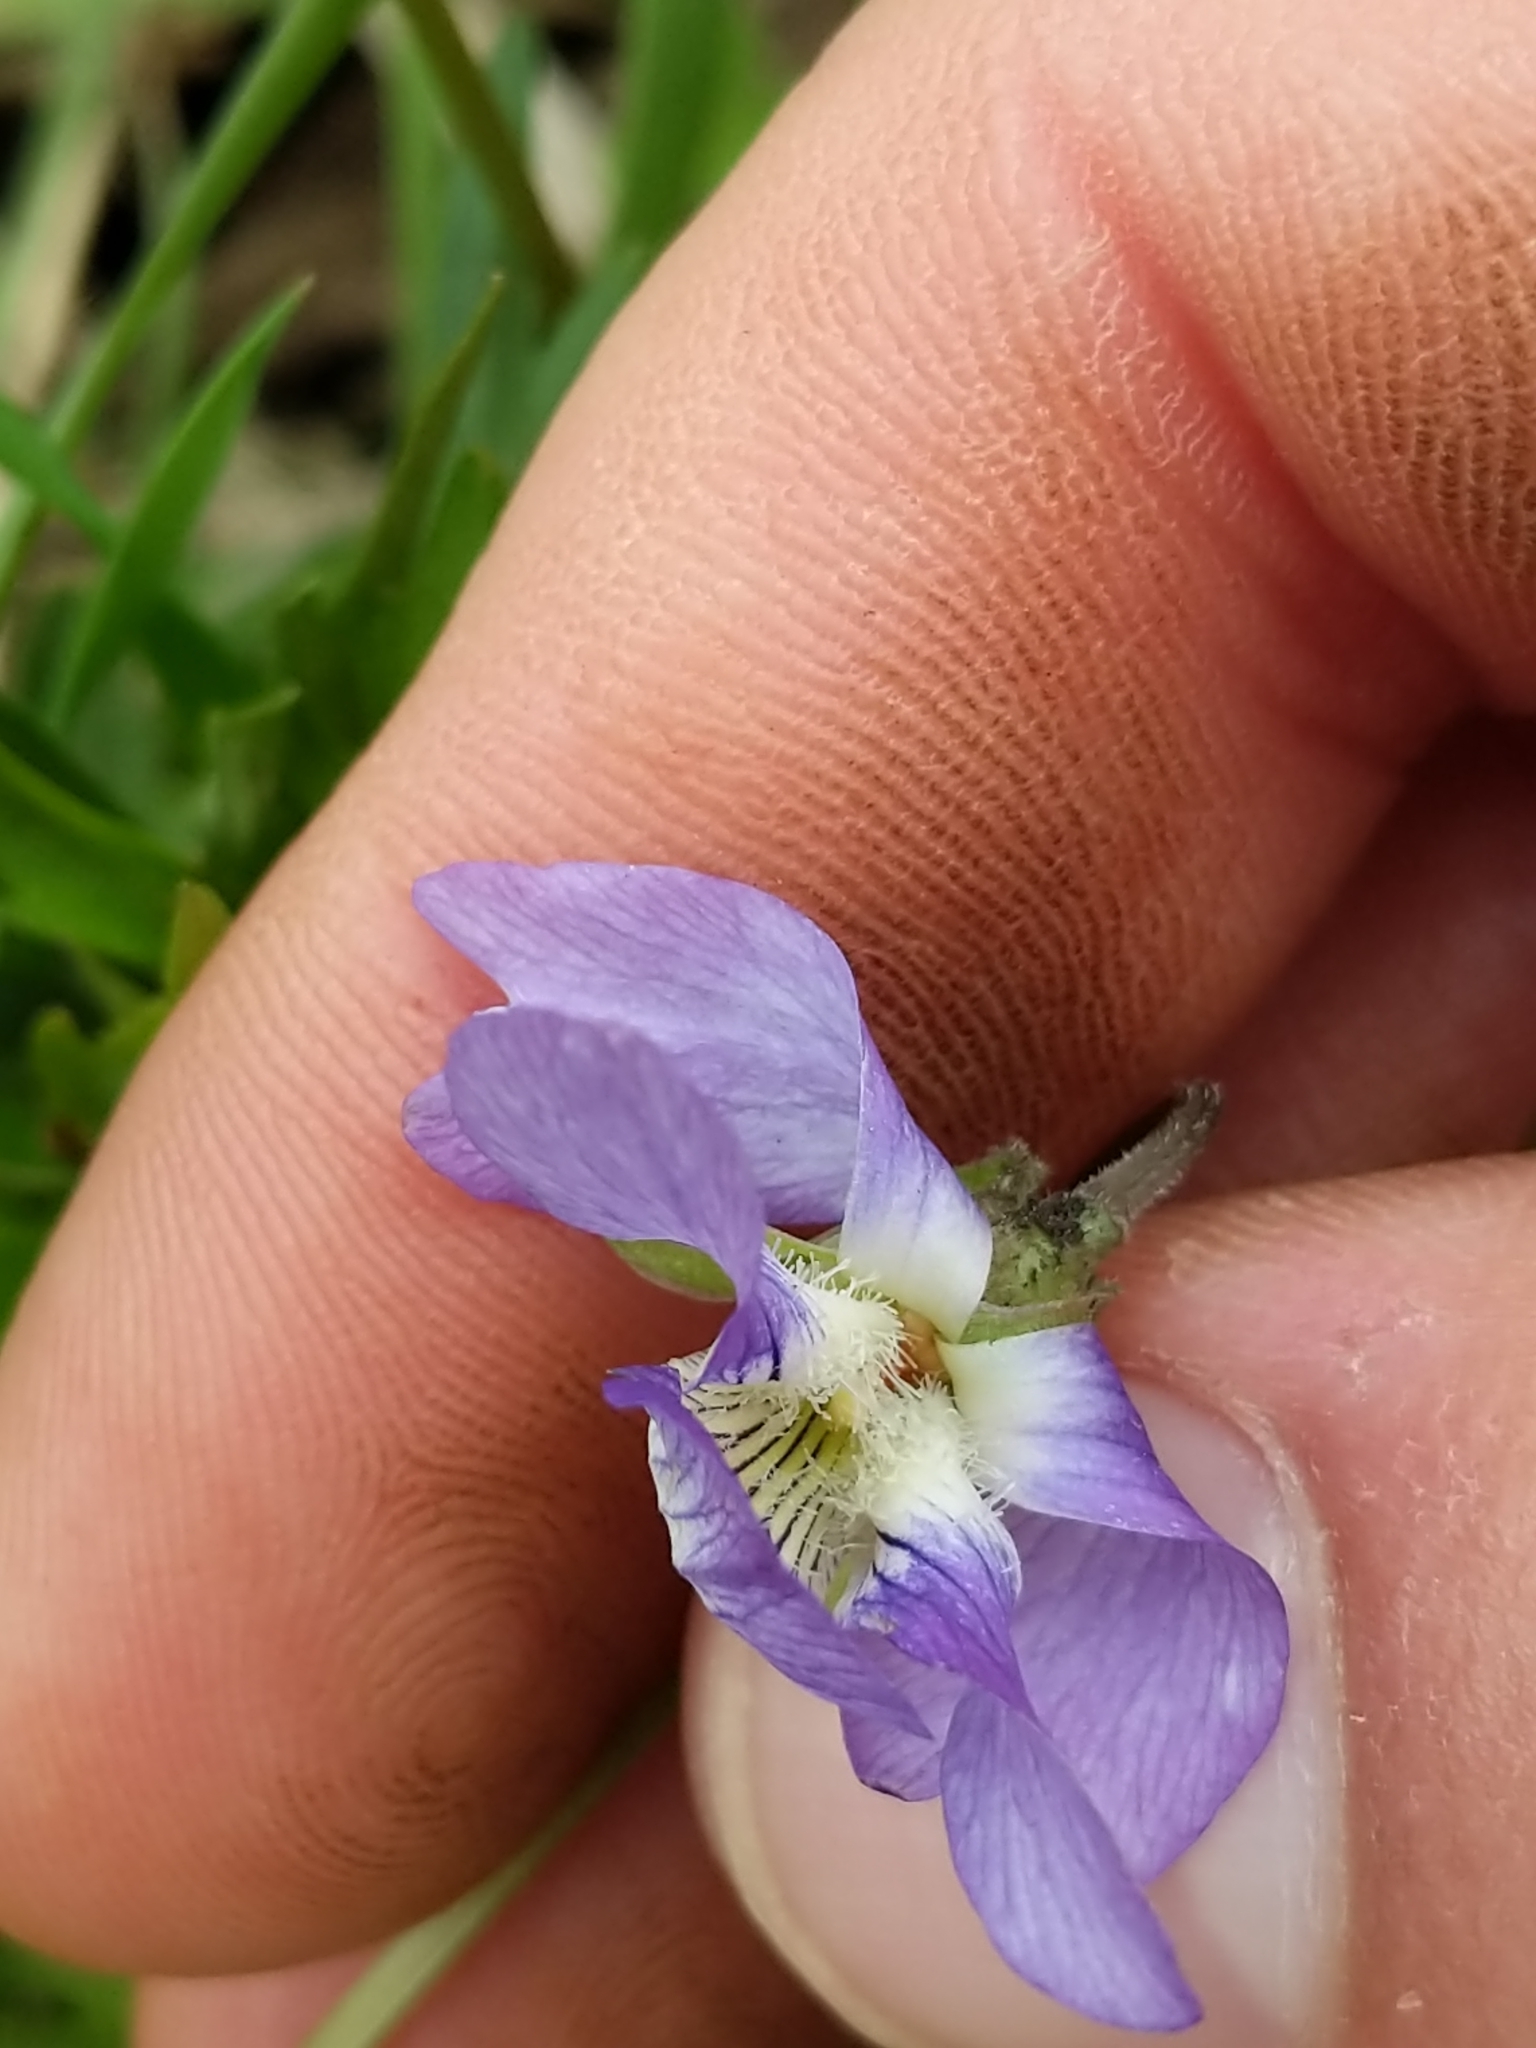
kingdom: Plantae
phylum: Tracheophyta
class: Magnoliopsida
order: Malpighiales
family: Violaceae
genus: Viola
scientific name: Viola pedatifida
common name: Prairie violet
